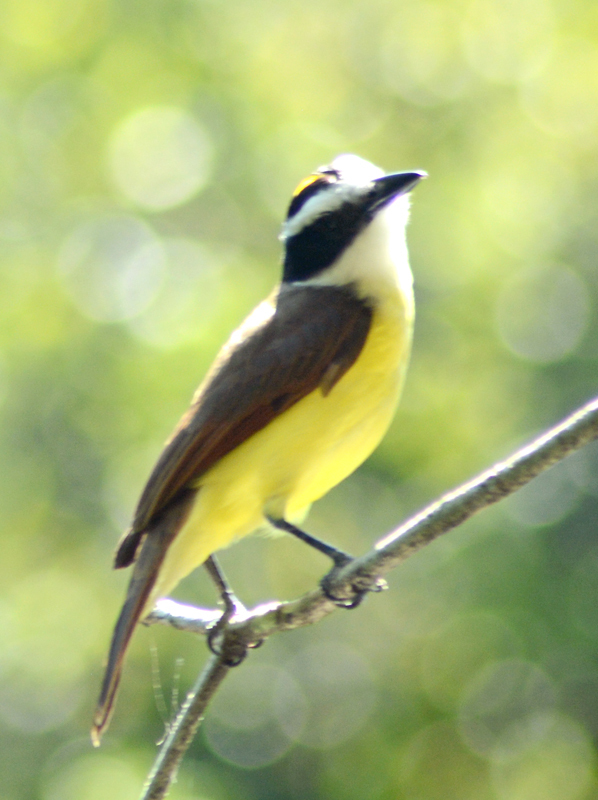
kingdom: Animalia
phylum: Chordata
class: Aves
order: Passeriformes
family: Tyrannidae
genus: Pitangus
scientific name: Pitangus sulphuratus
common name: Great kiskadee
